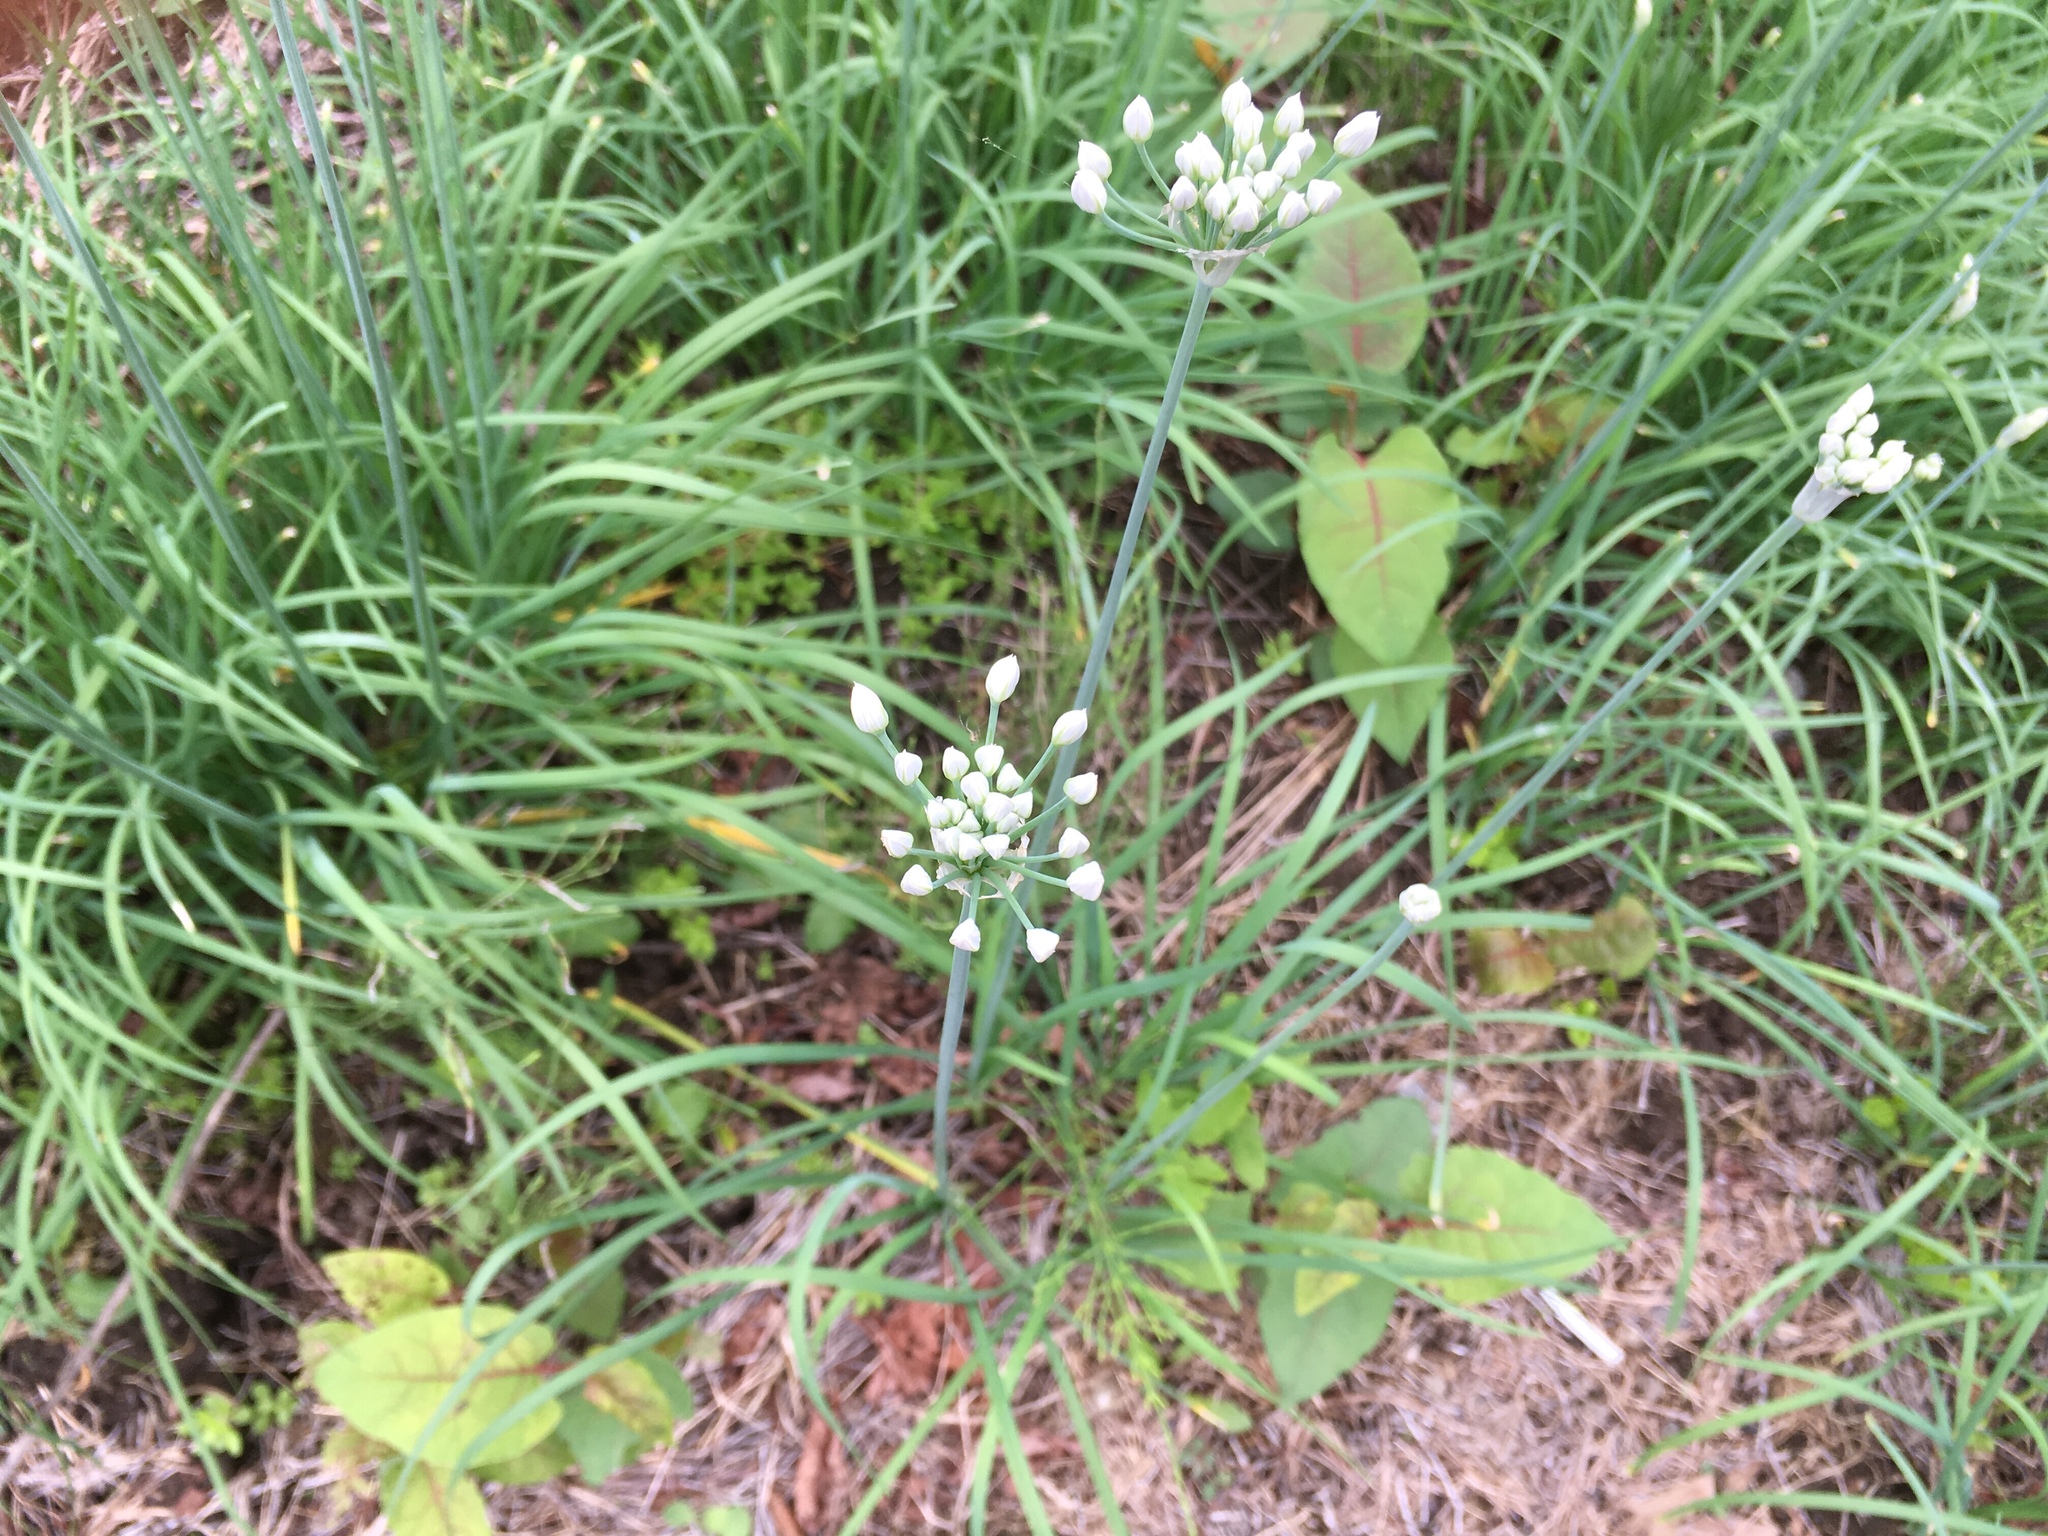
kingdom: Plantae
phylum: Tracheophyta
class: Liliopsida
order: Asparagales
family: Amaryllidaceae
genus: Allium
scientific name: Allium tuberosum
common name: Chinese chives
